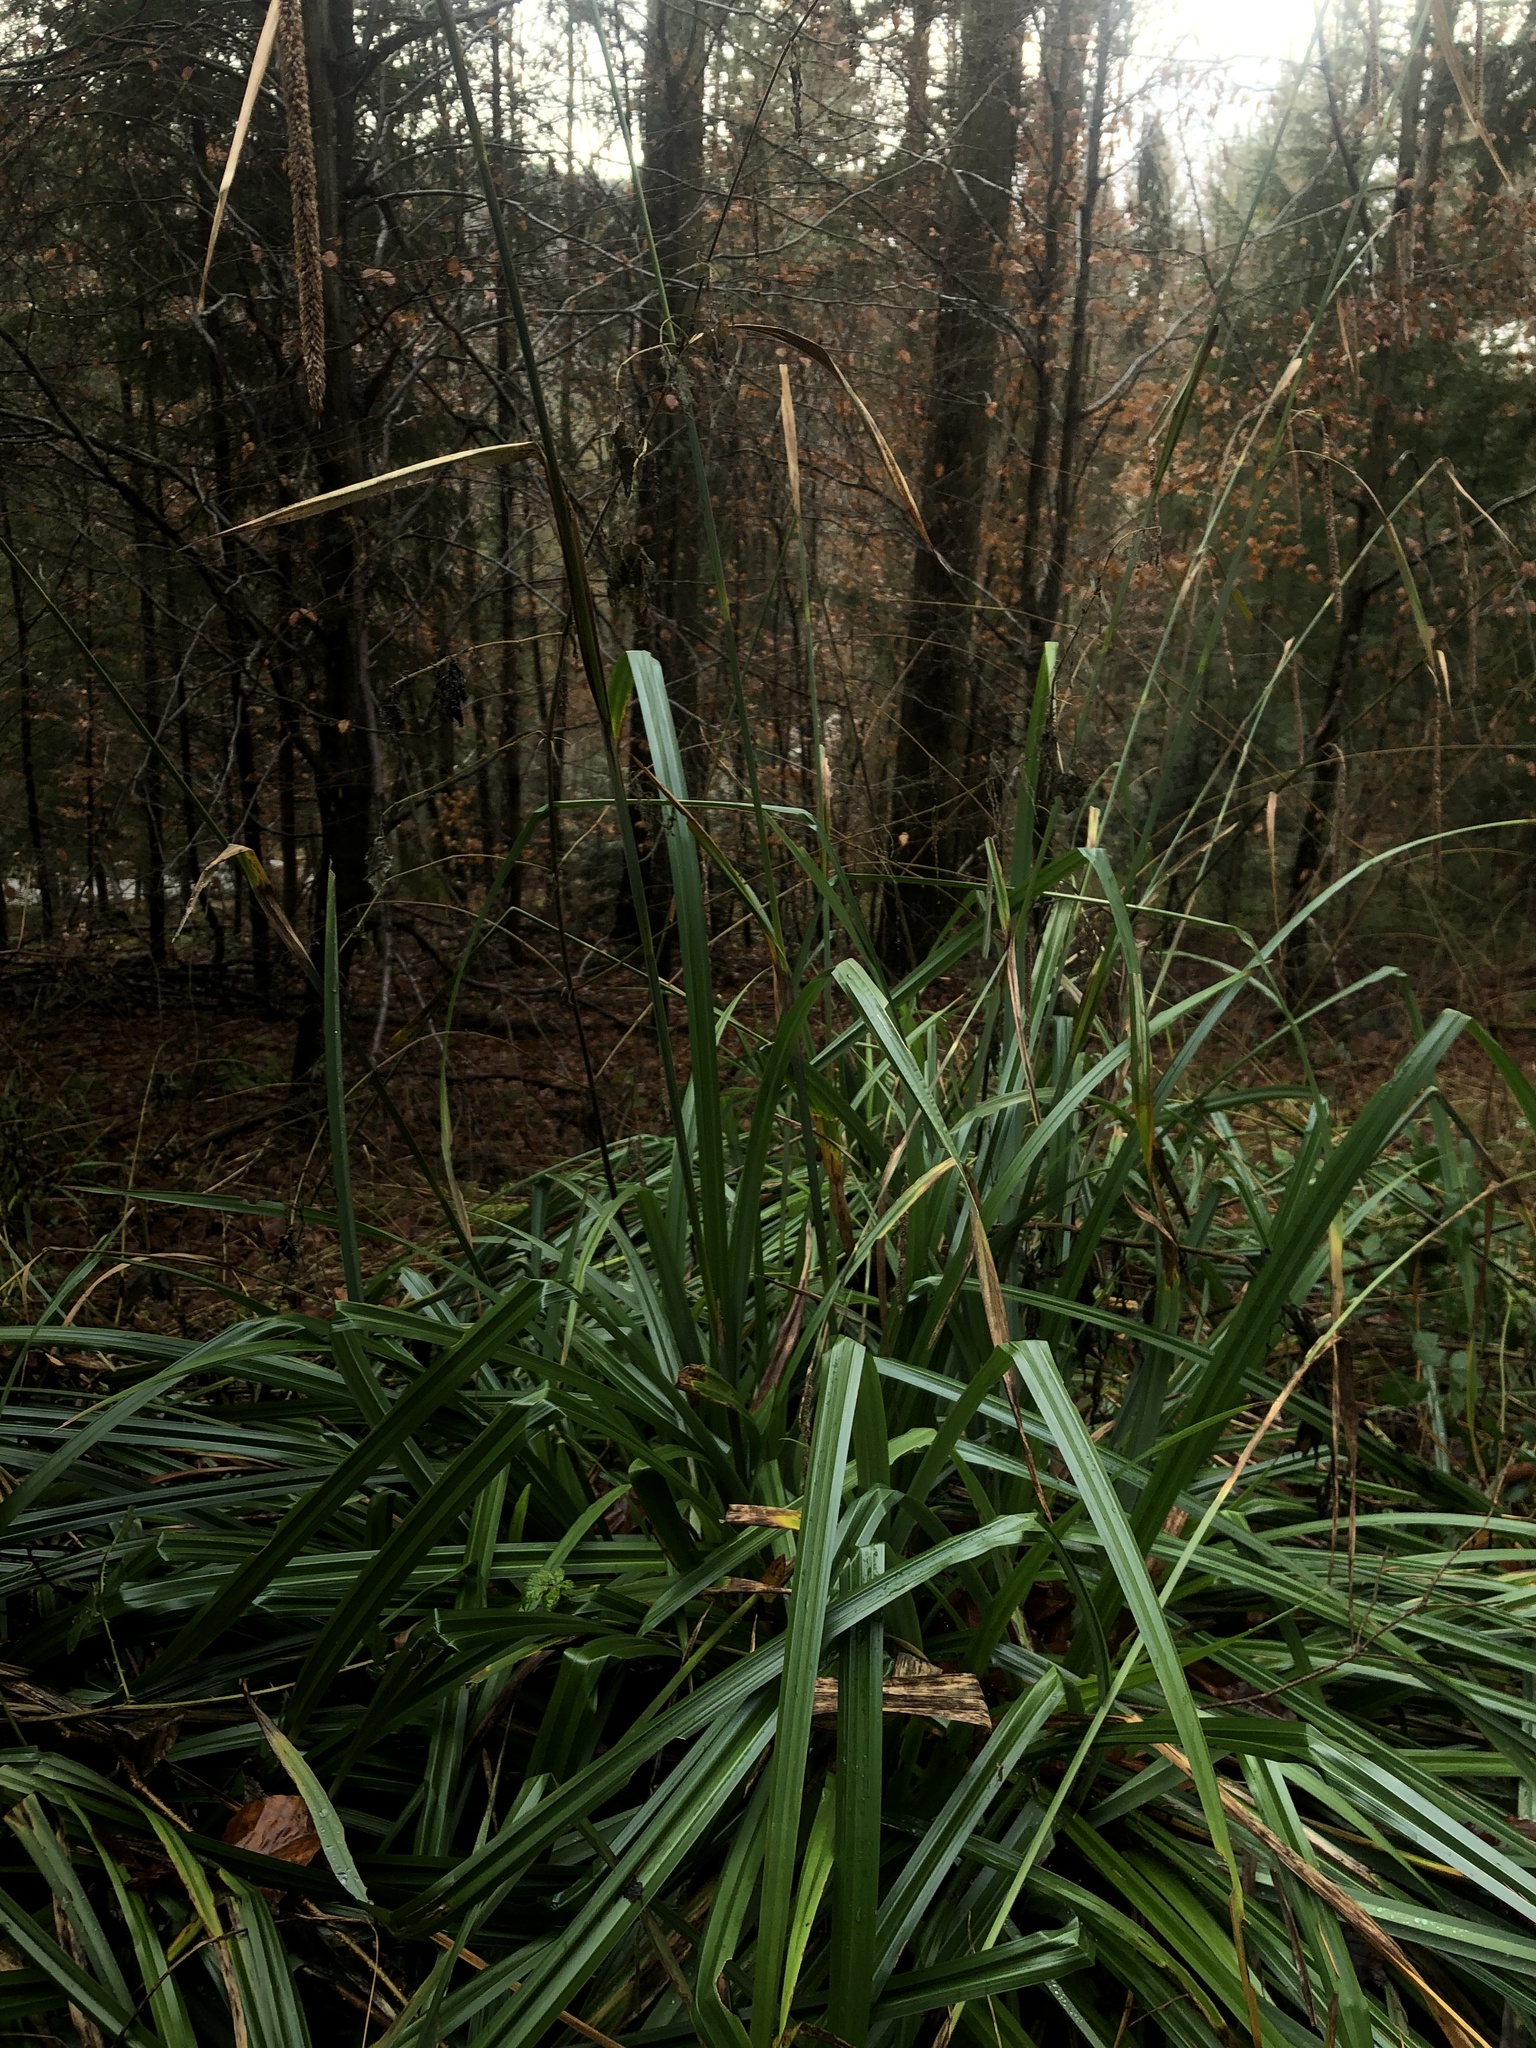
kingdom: Plantae
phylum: Tracheophyta
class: Liliopsida
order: Poales
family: Cyperaceae
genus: Carex
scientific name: Carex pendula
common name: Pendulous sedge
